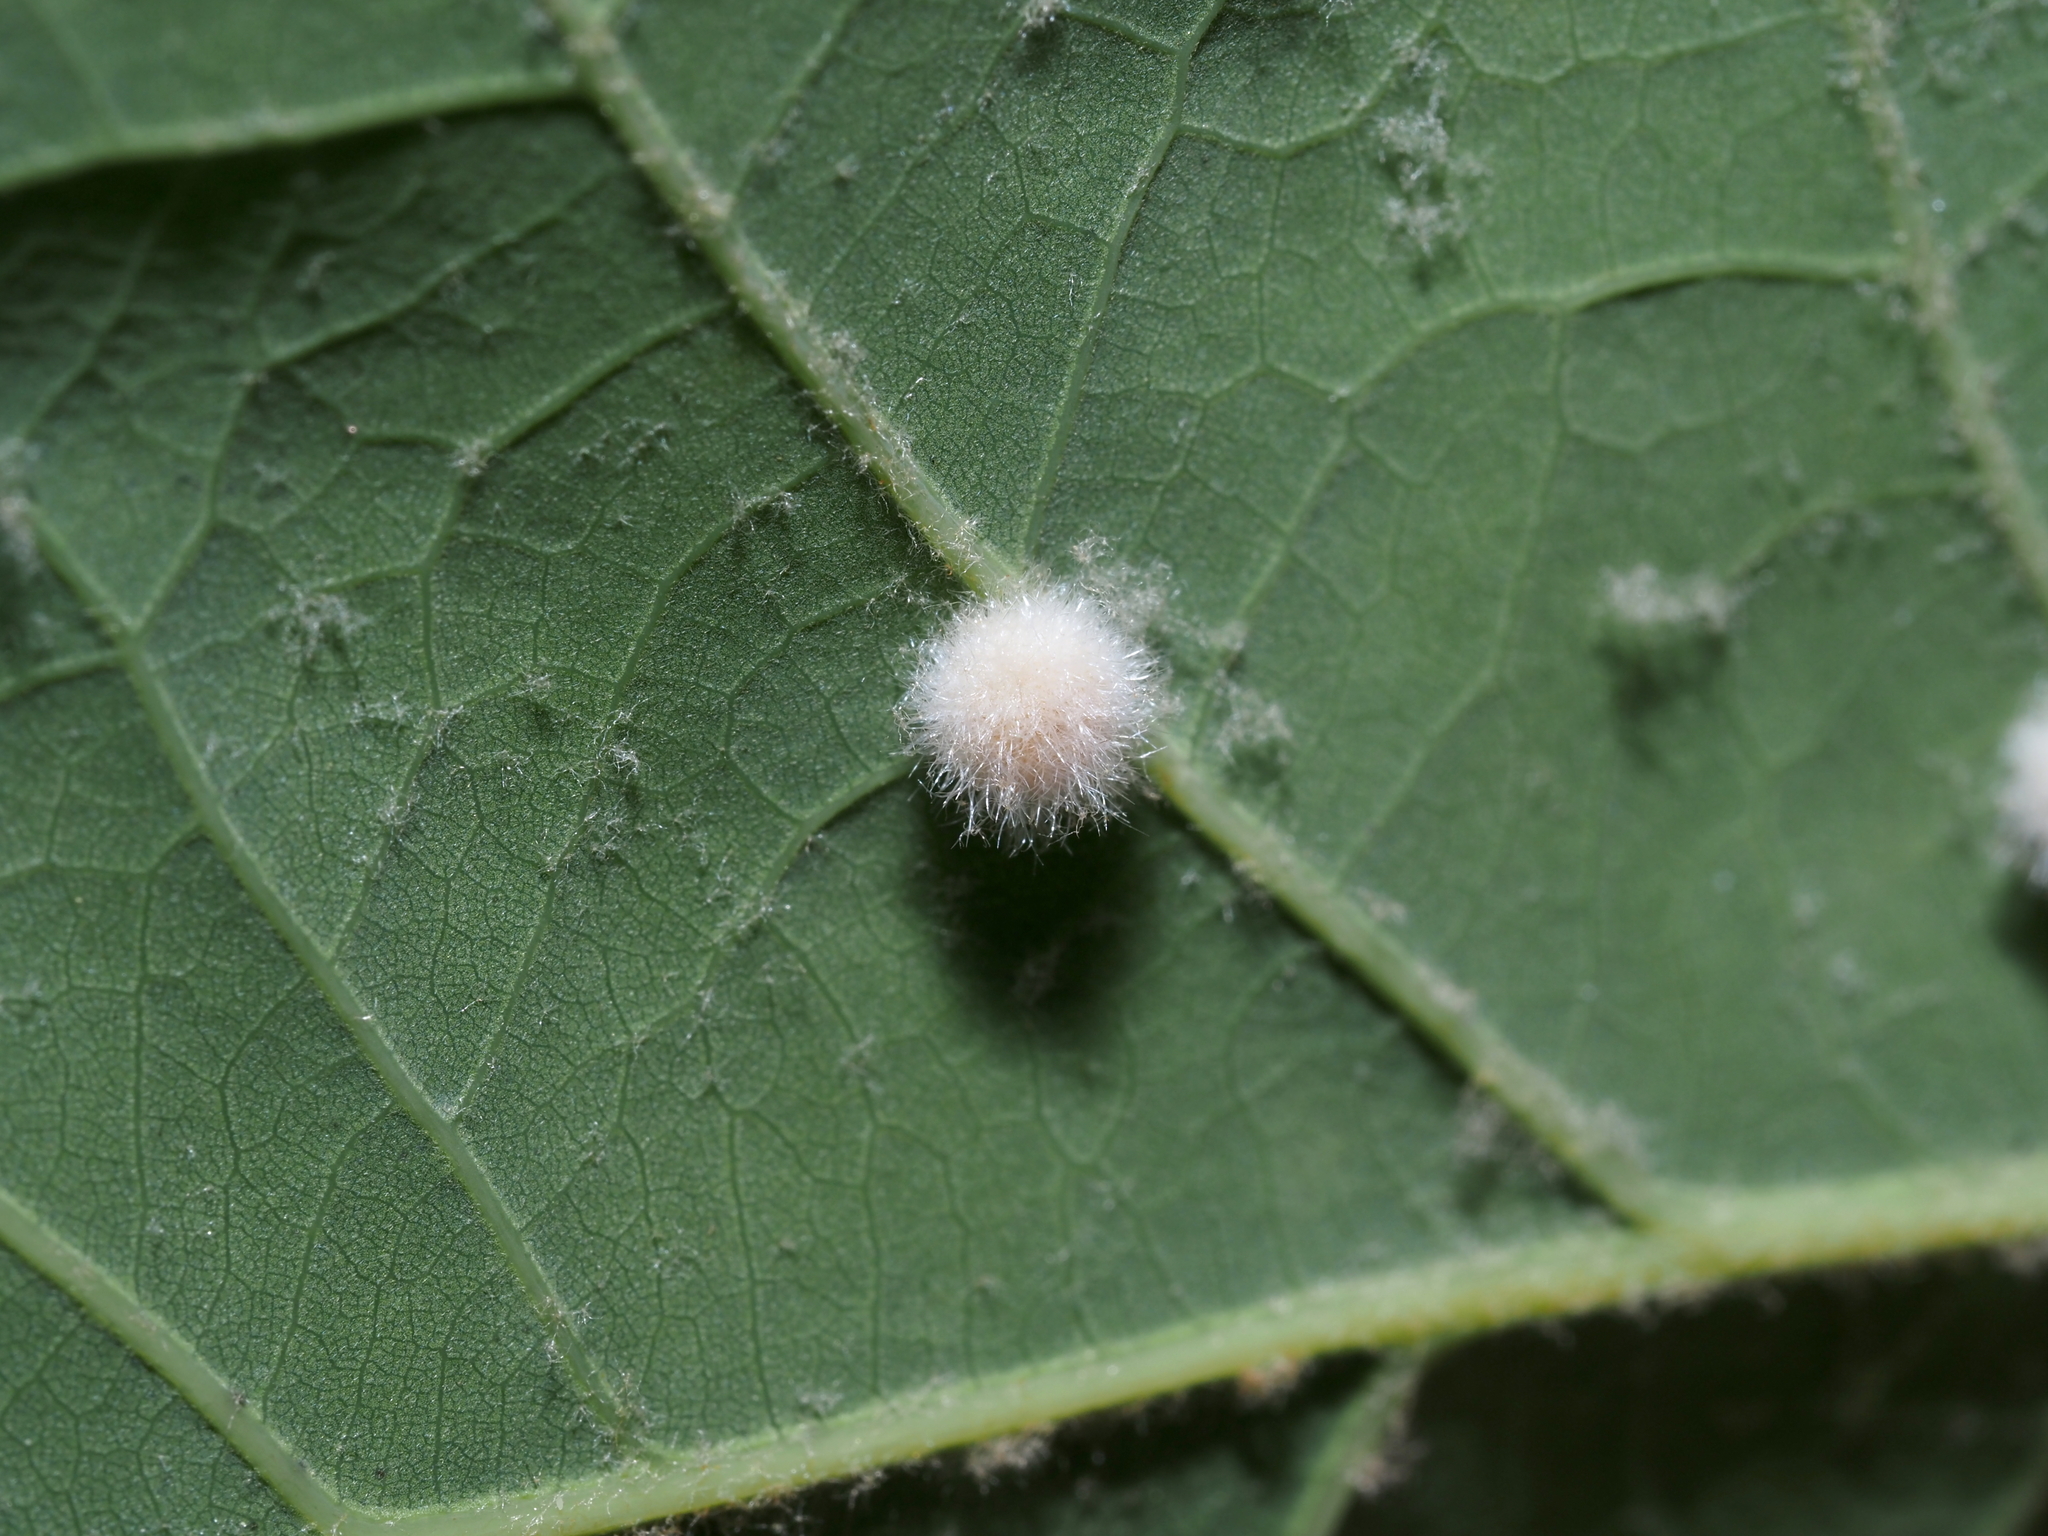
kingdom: Animalia
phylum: Arthropoda
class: Insecta
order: Hymenoptera
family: Cynipidae
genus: Philonix
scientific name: Philonix fulvicollis
